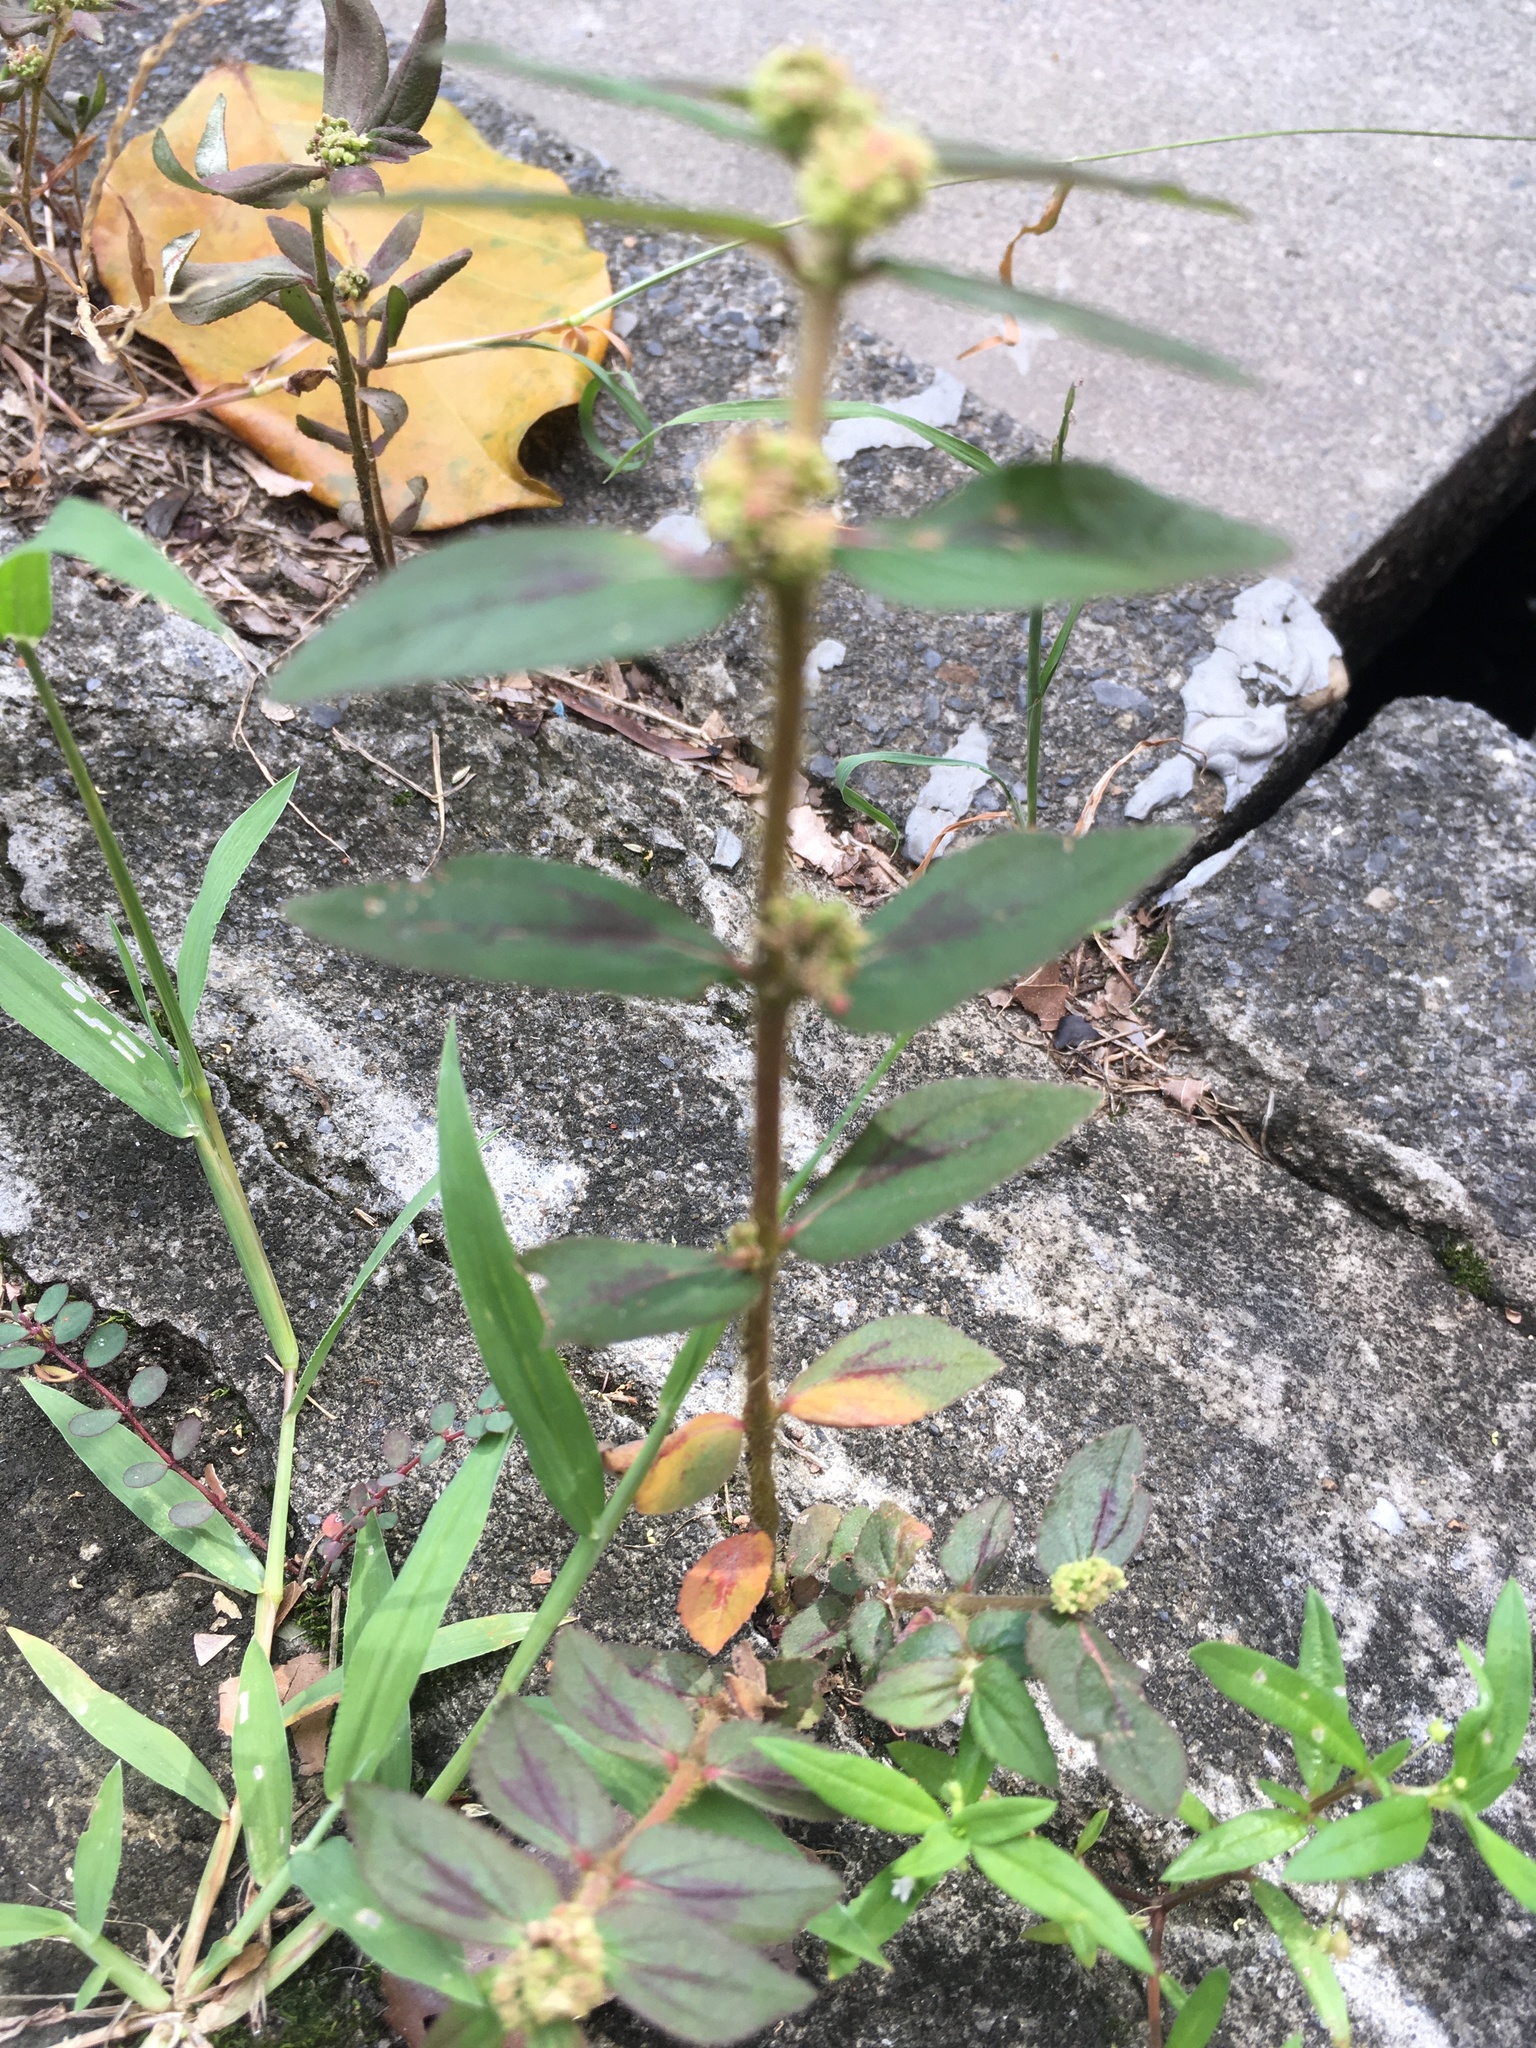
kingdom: Plantae
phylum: Tracheophyta
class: Magnoliopsida
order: Malpighiales
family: Euphorbiaceae
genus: Euphorbia
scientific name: Euphorbia hirta
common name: Pillpod sandmat
